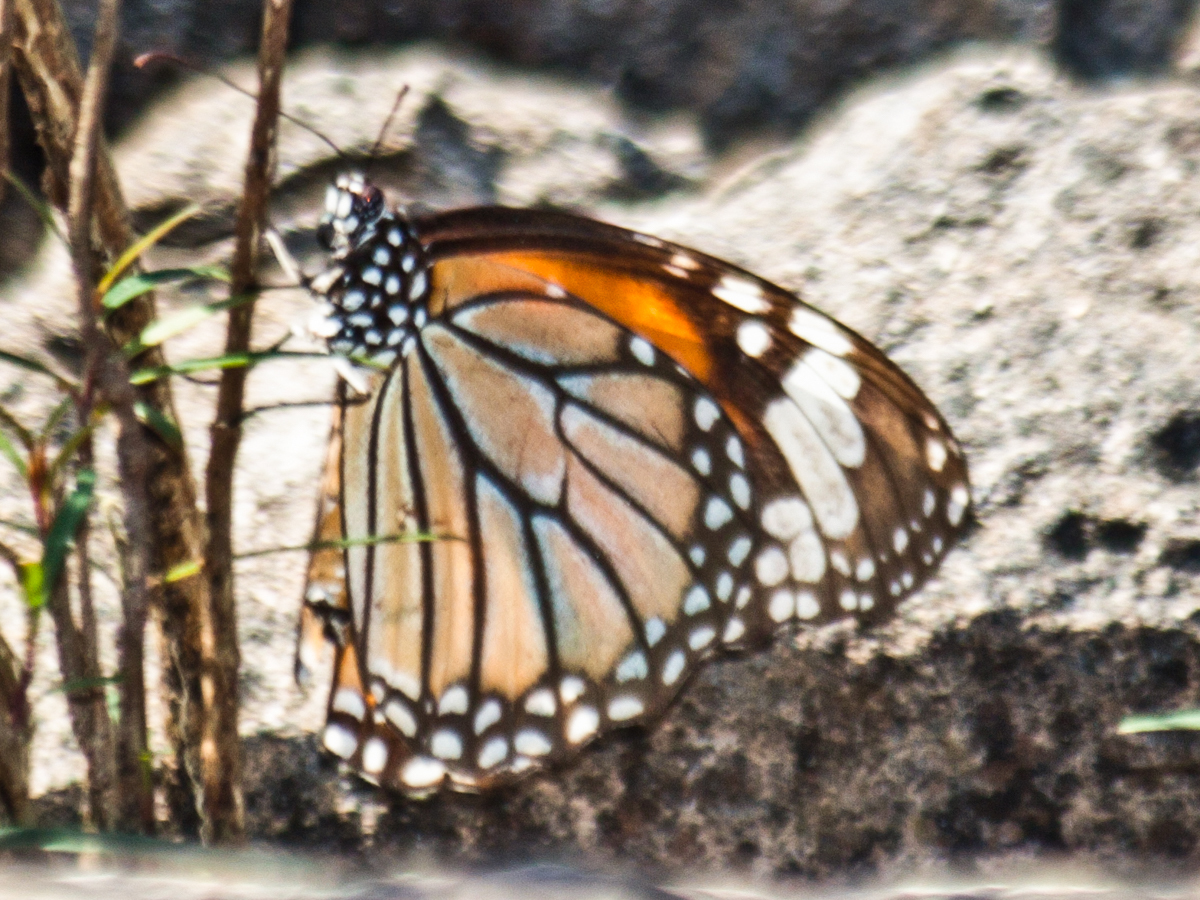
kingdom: Animalia
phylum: Arthropoda
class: Insecta
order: Lepidoptera
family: Nymphalidae
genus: Danaus
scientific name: Danaus genutia
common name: Common tiger butterfly
